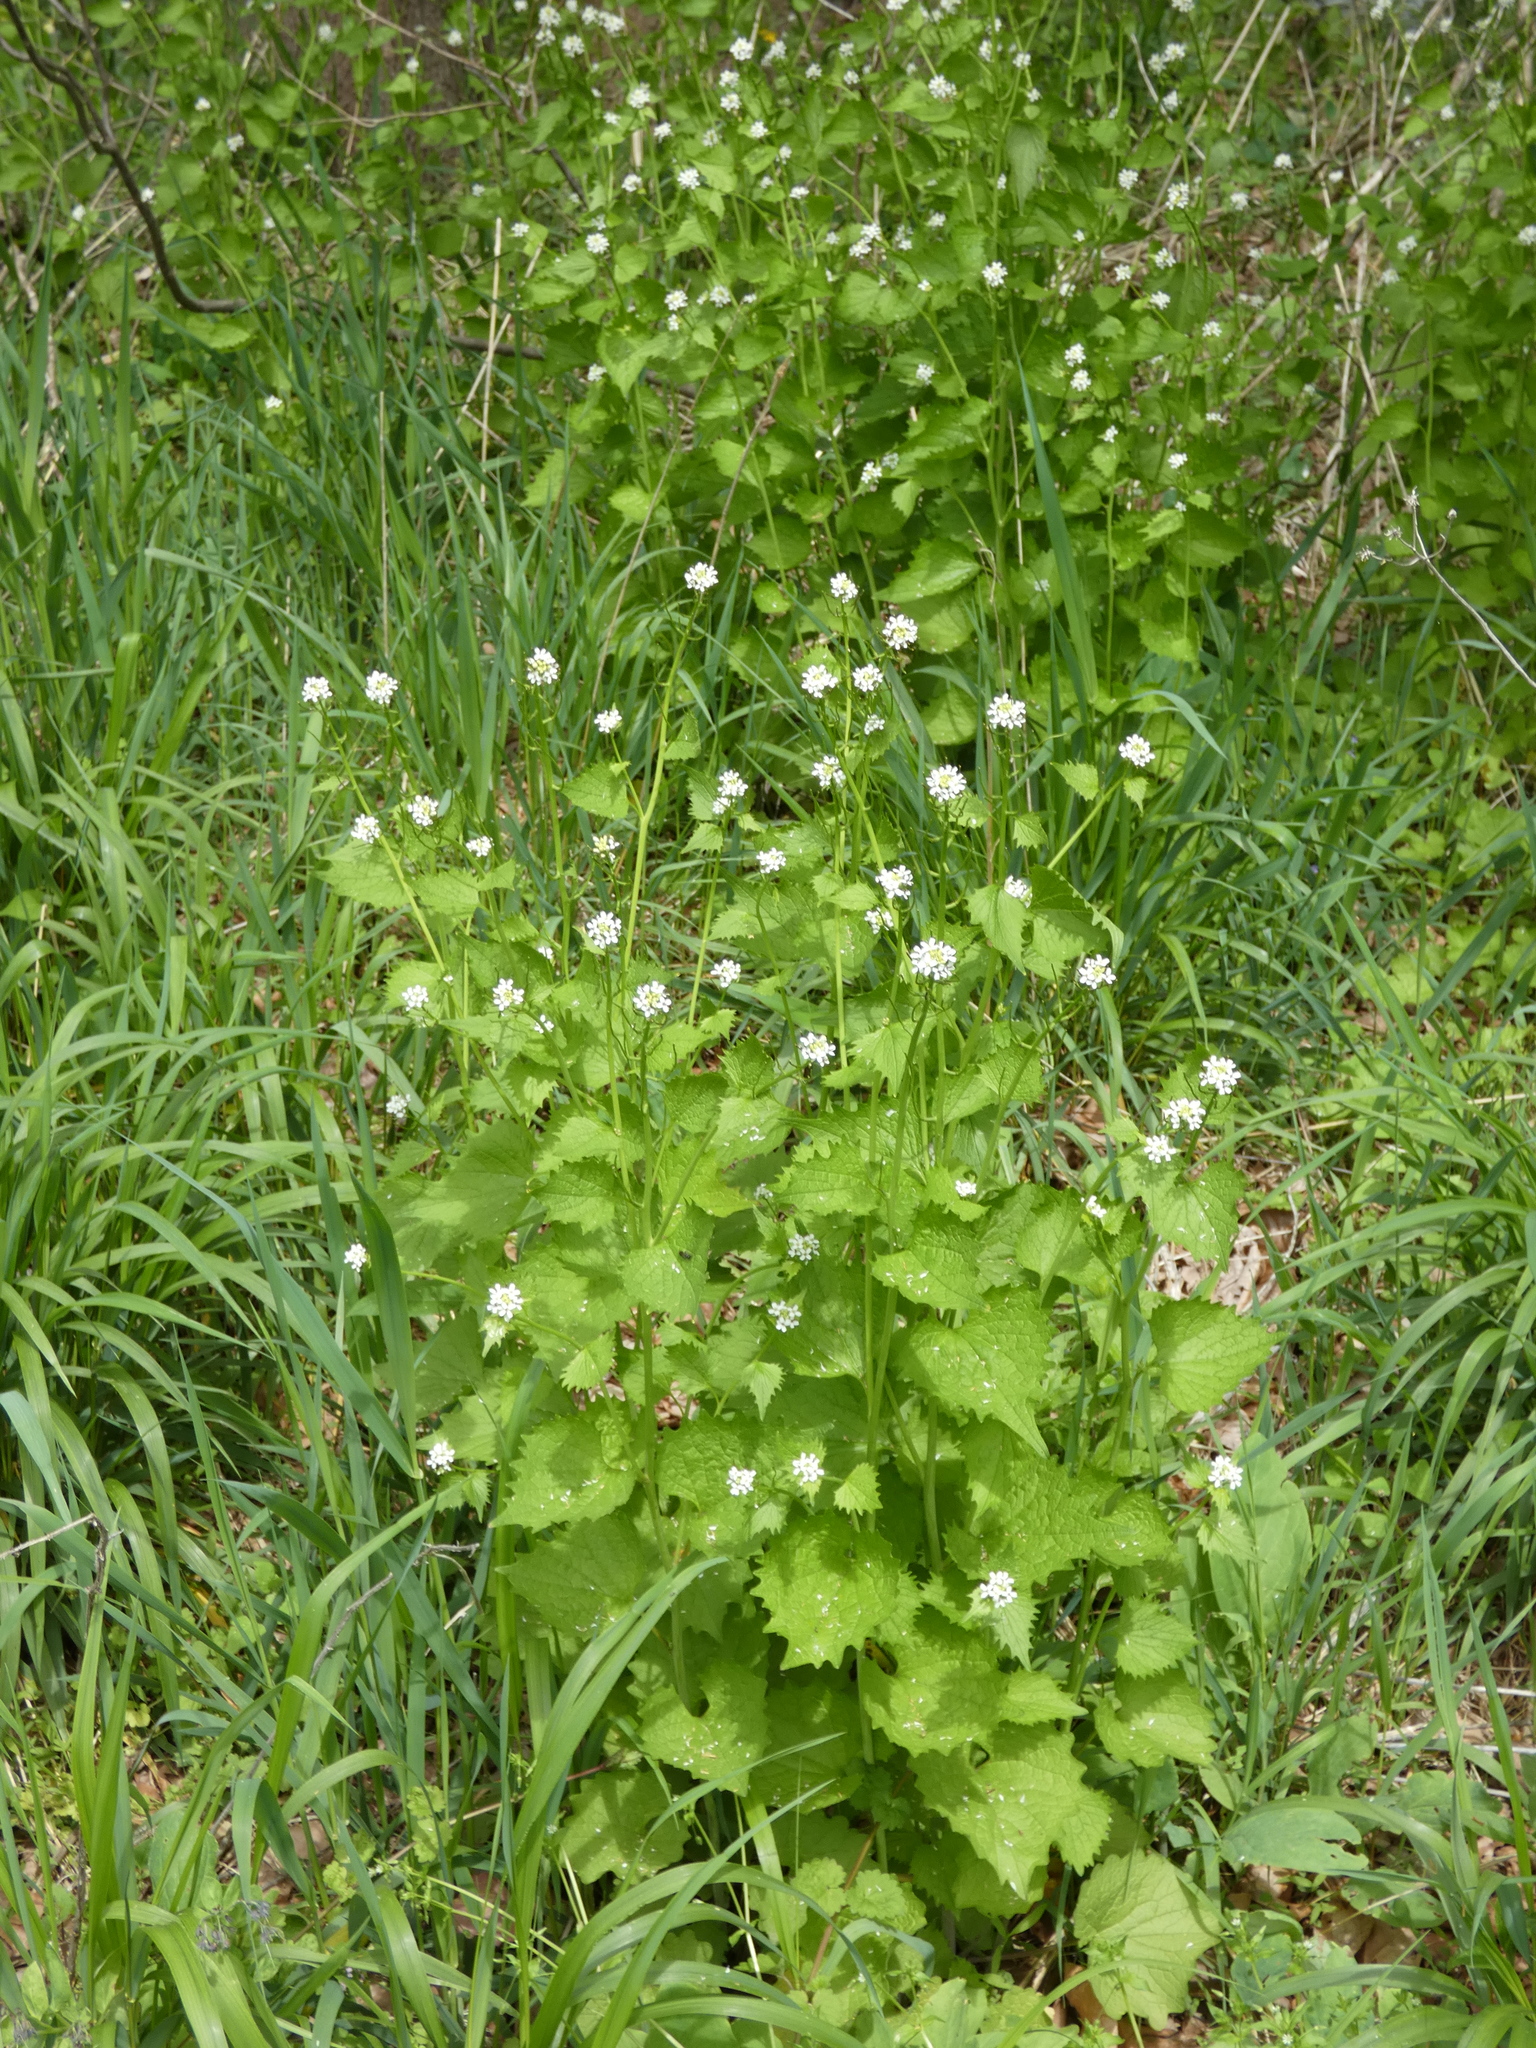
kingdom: Plantae
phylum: Tracheophyta
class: Magnoliopsida
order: Brassicales
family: Brassicaceae
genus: Alliaria
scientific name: Alliaria petiolata
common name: Garlic mustard
